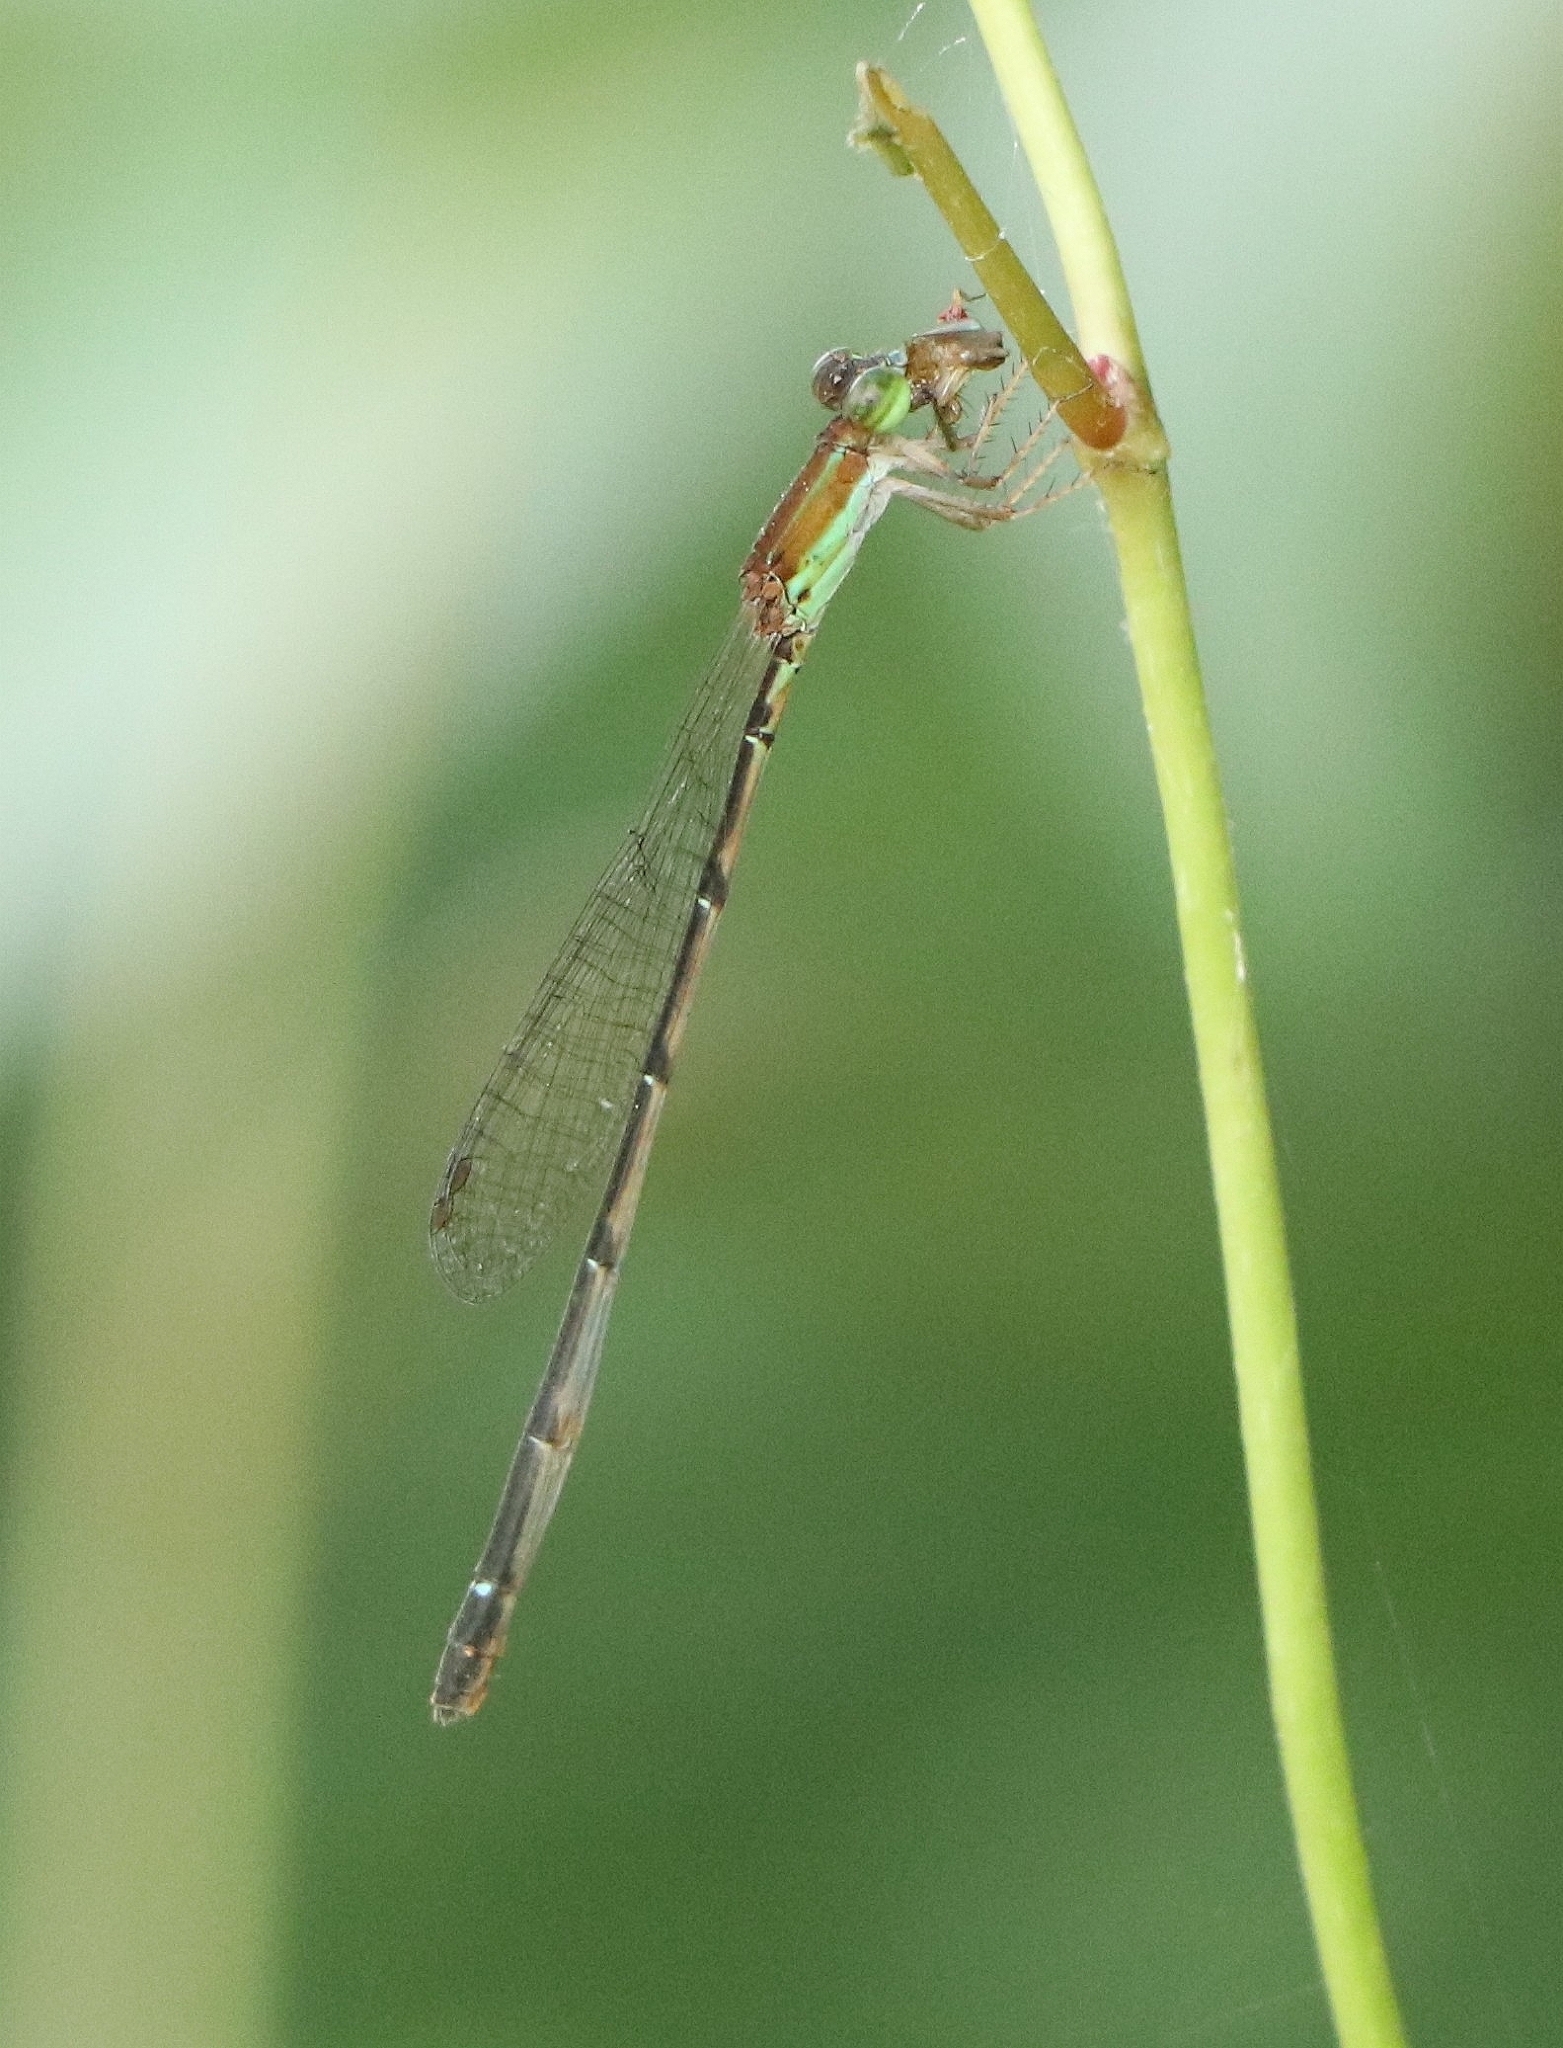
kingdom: Animalia
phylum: Arthropoda
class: Insecta
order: Odonata
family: Coenagrionidae
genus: Mortonagrion
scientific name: Mortonagrion varralli
